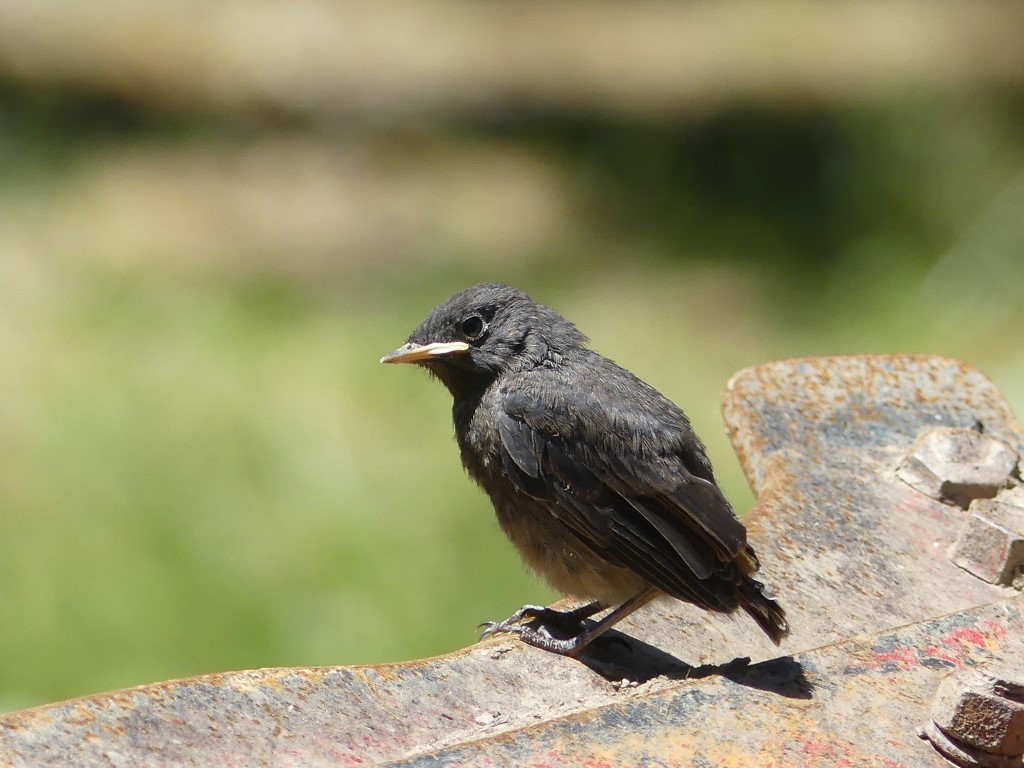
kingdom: Animalia
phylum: Chordata
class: Aves
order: Passeriformes
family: Muscicapidae
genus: Phoenicurus
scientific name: Phoenicurus ochruros
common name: Black redstart
